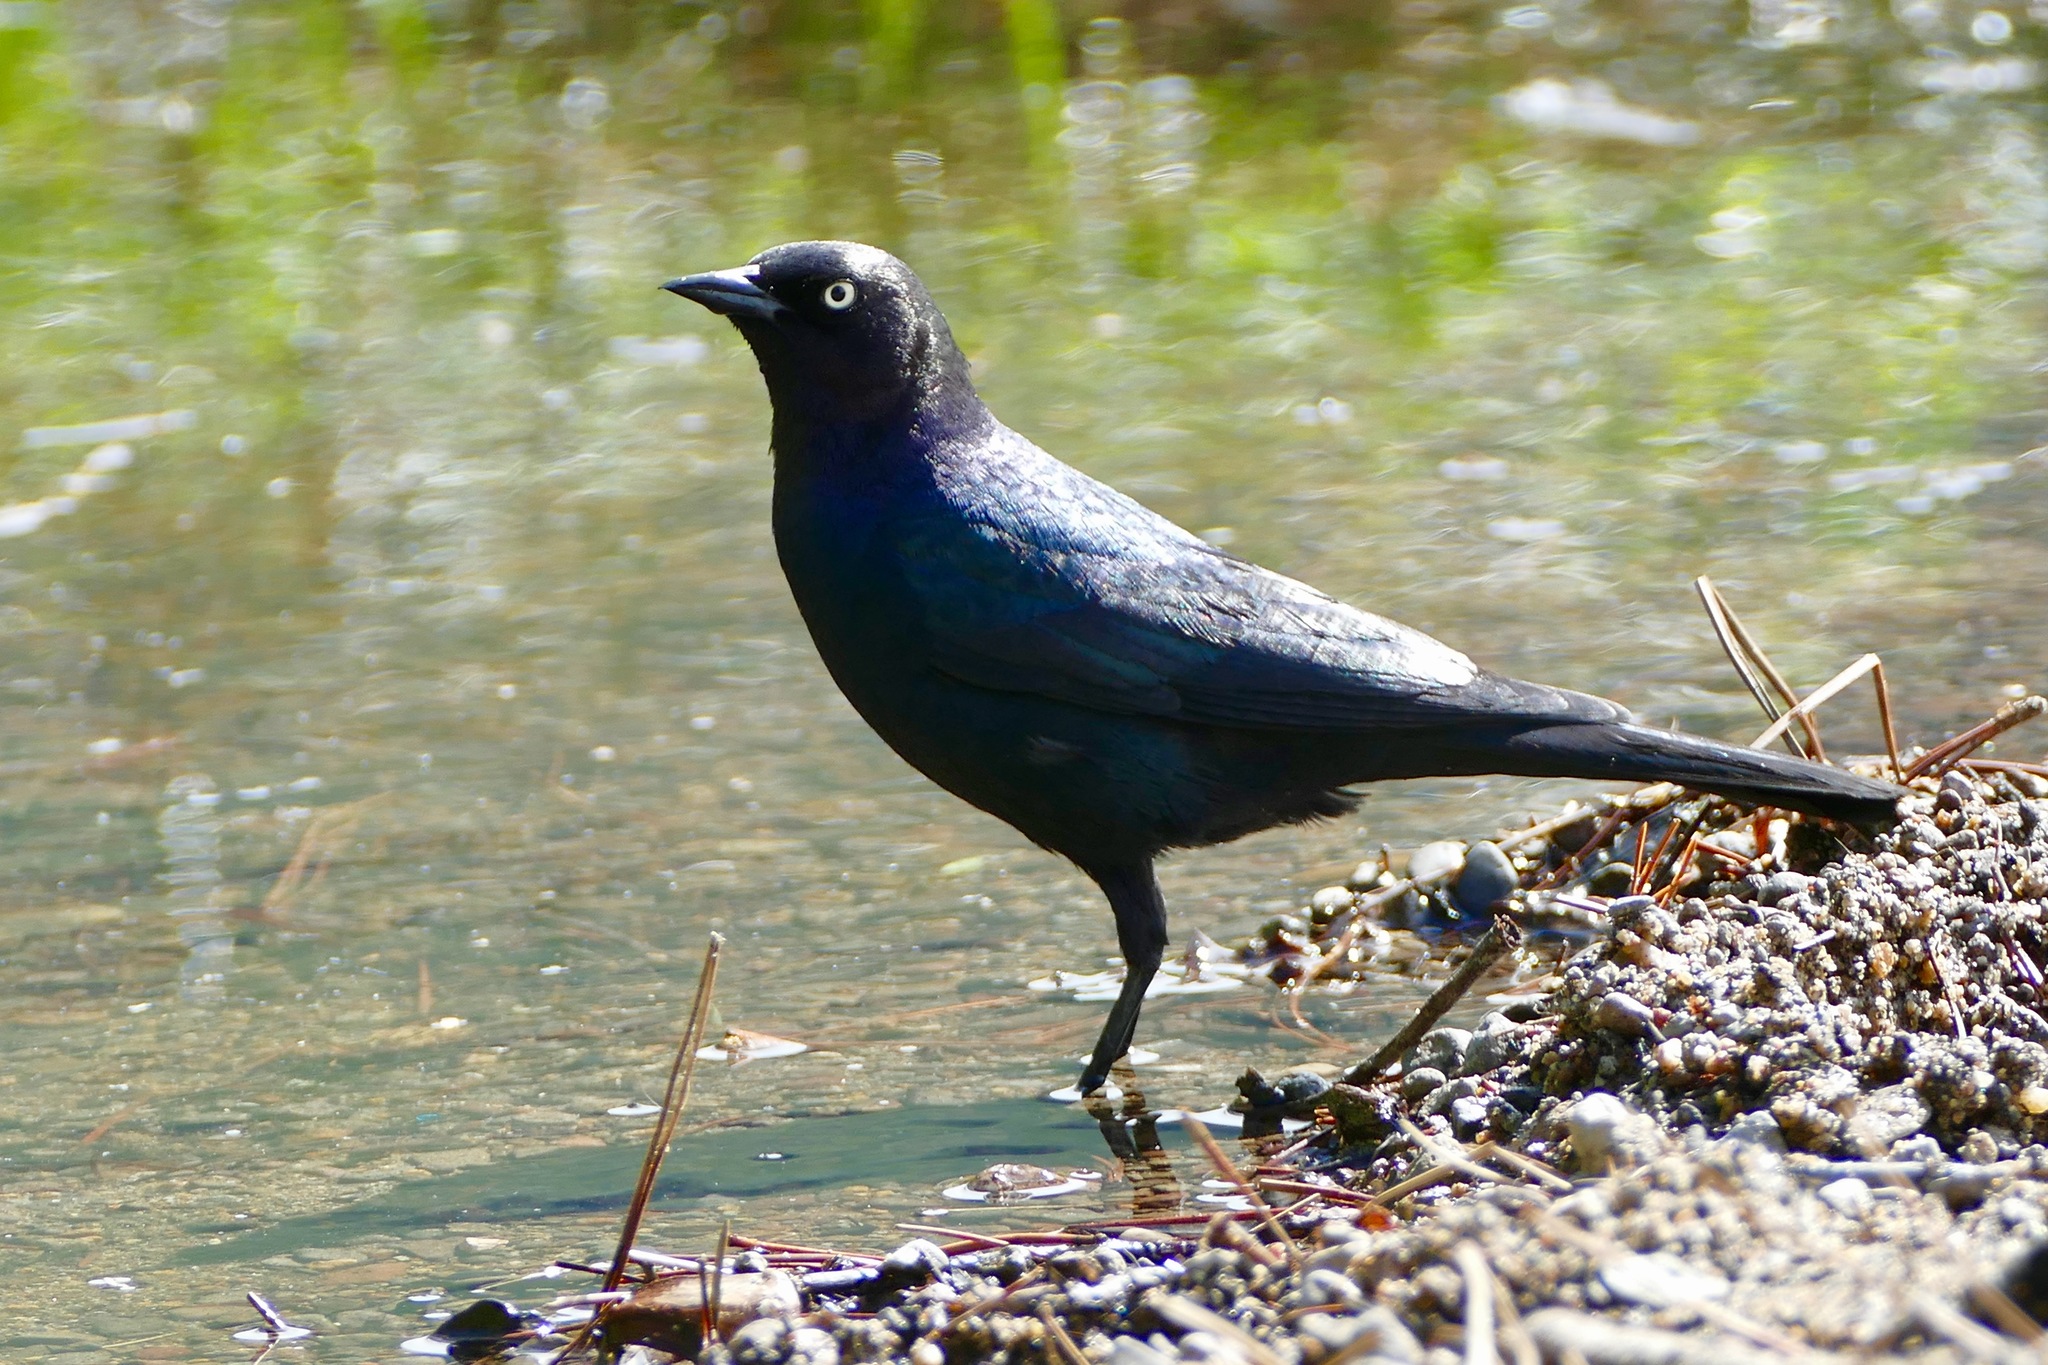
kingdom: Animalia
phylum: Chordata
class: Aves
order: Passeriformes
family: Icteridae
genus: Euphagus
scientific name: Euphagus cyanocephalus
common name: Brewer's blackbird
